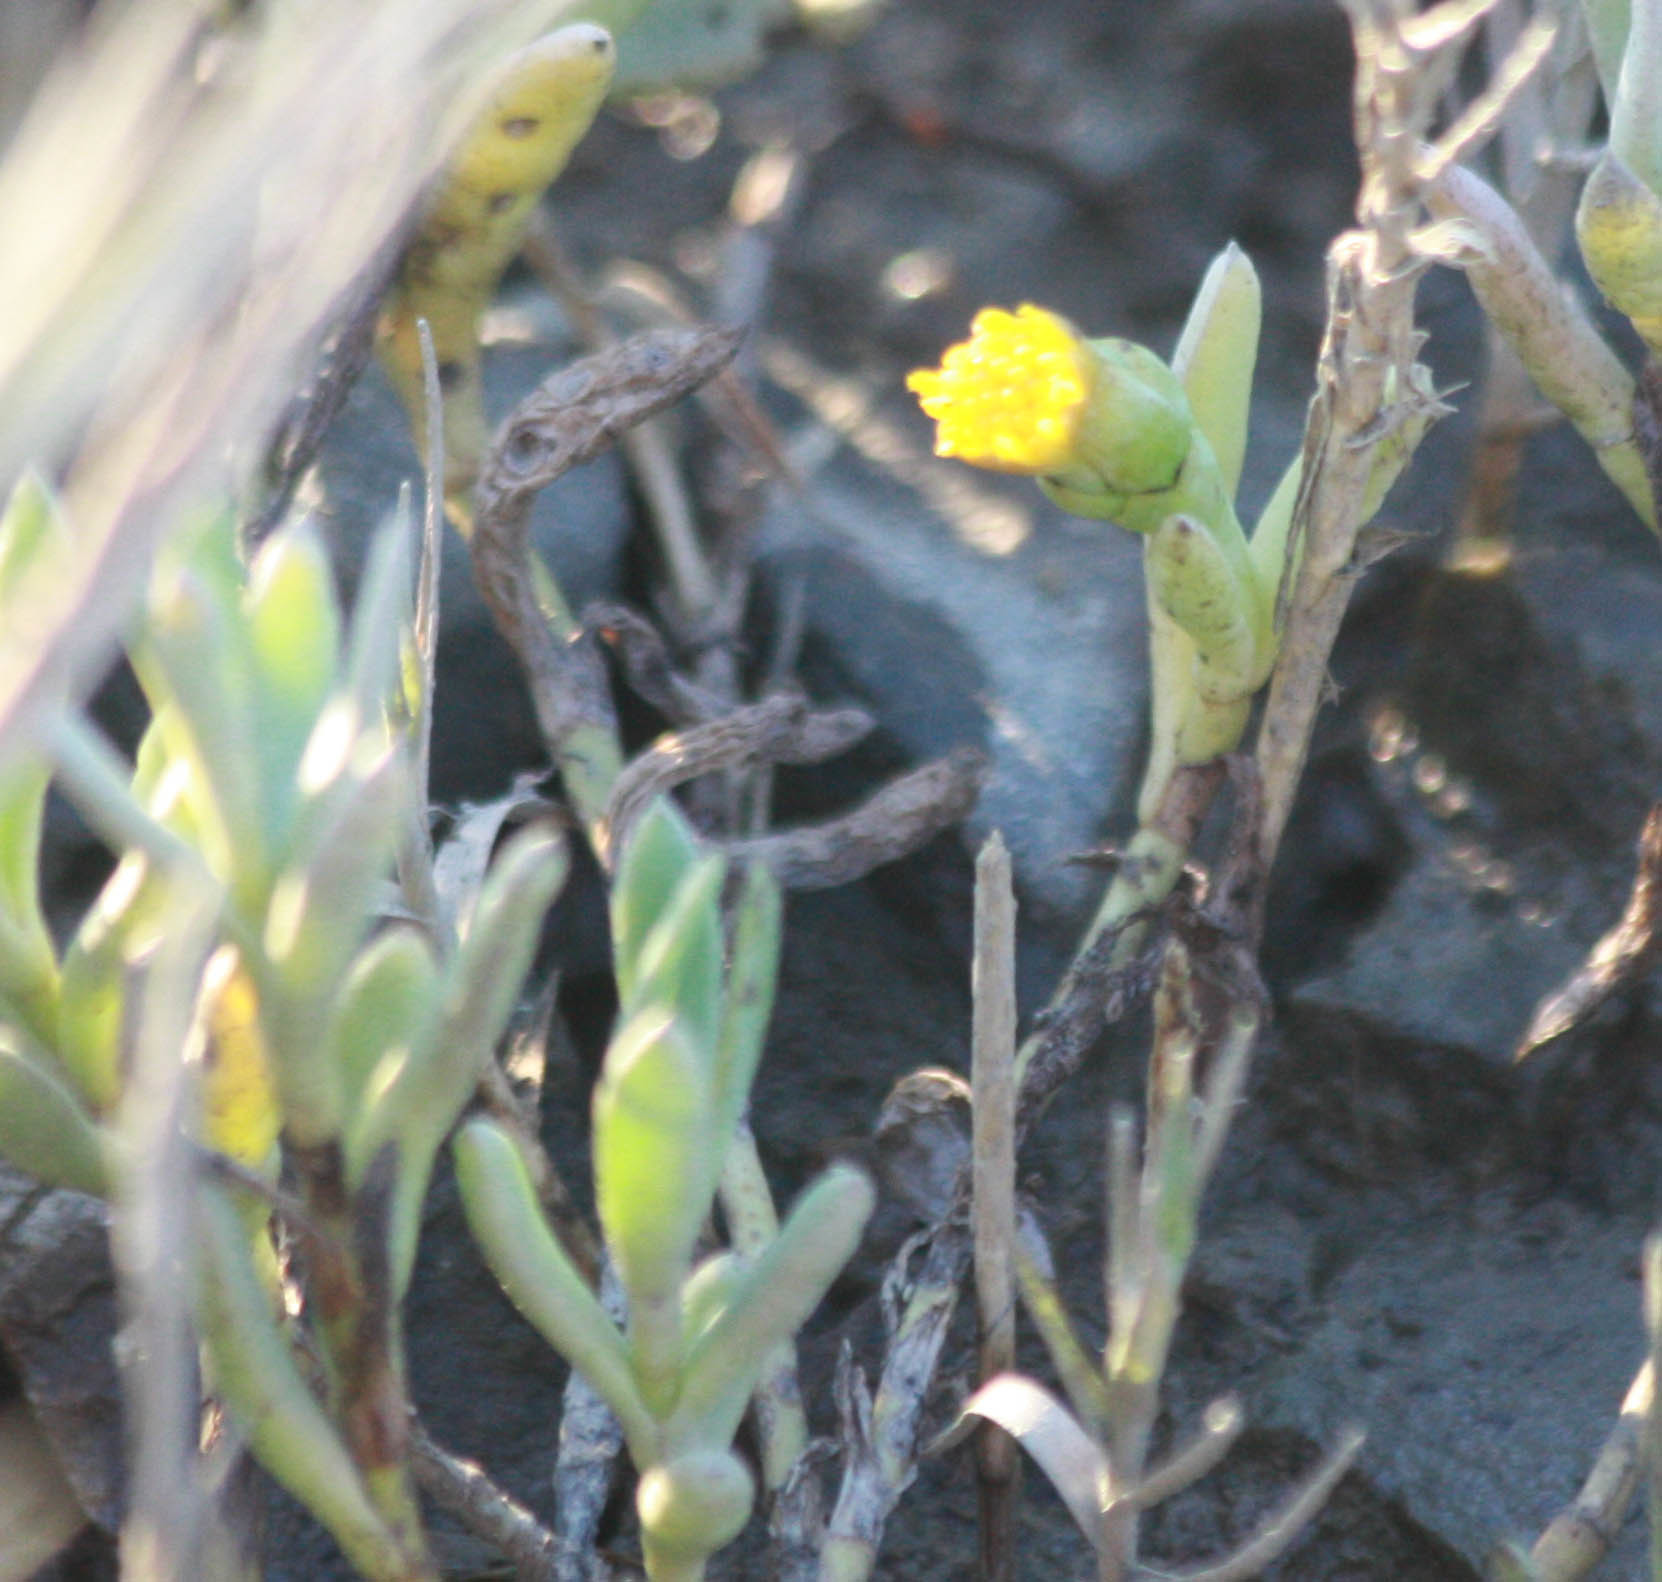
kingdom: Plantae
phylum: Tracheophyta
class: Magnoliopsida
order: Asterales
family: Asteraceae
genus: Jaumea
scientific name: Jaumea carnosa
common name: Fleshy jaumea
